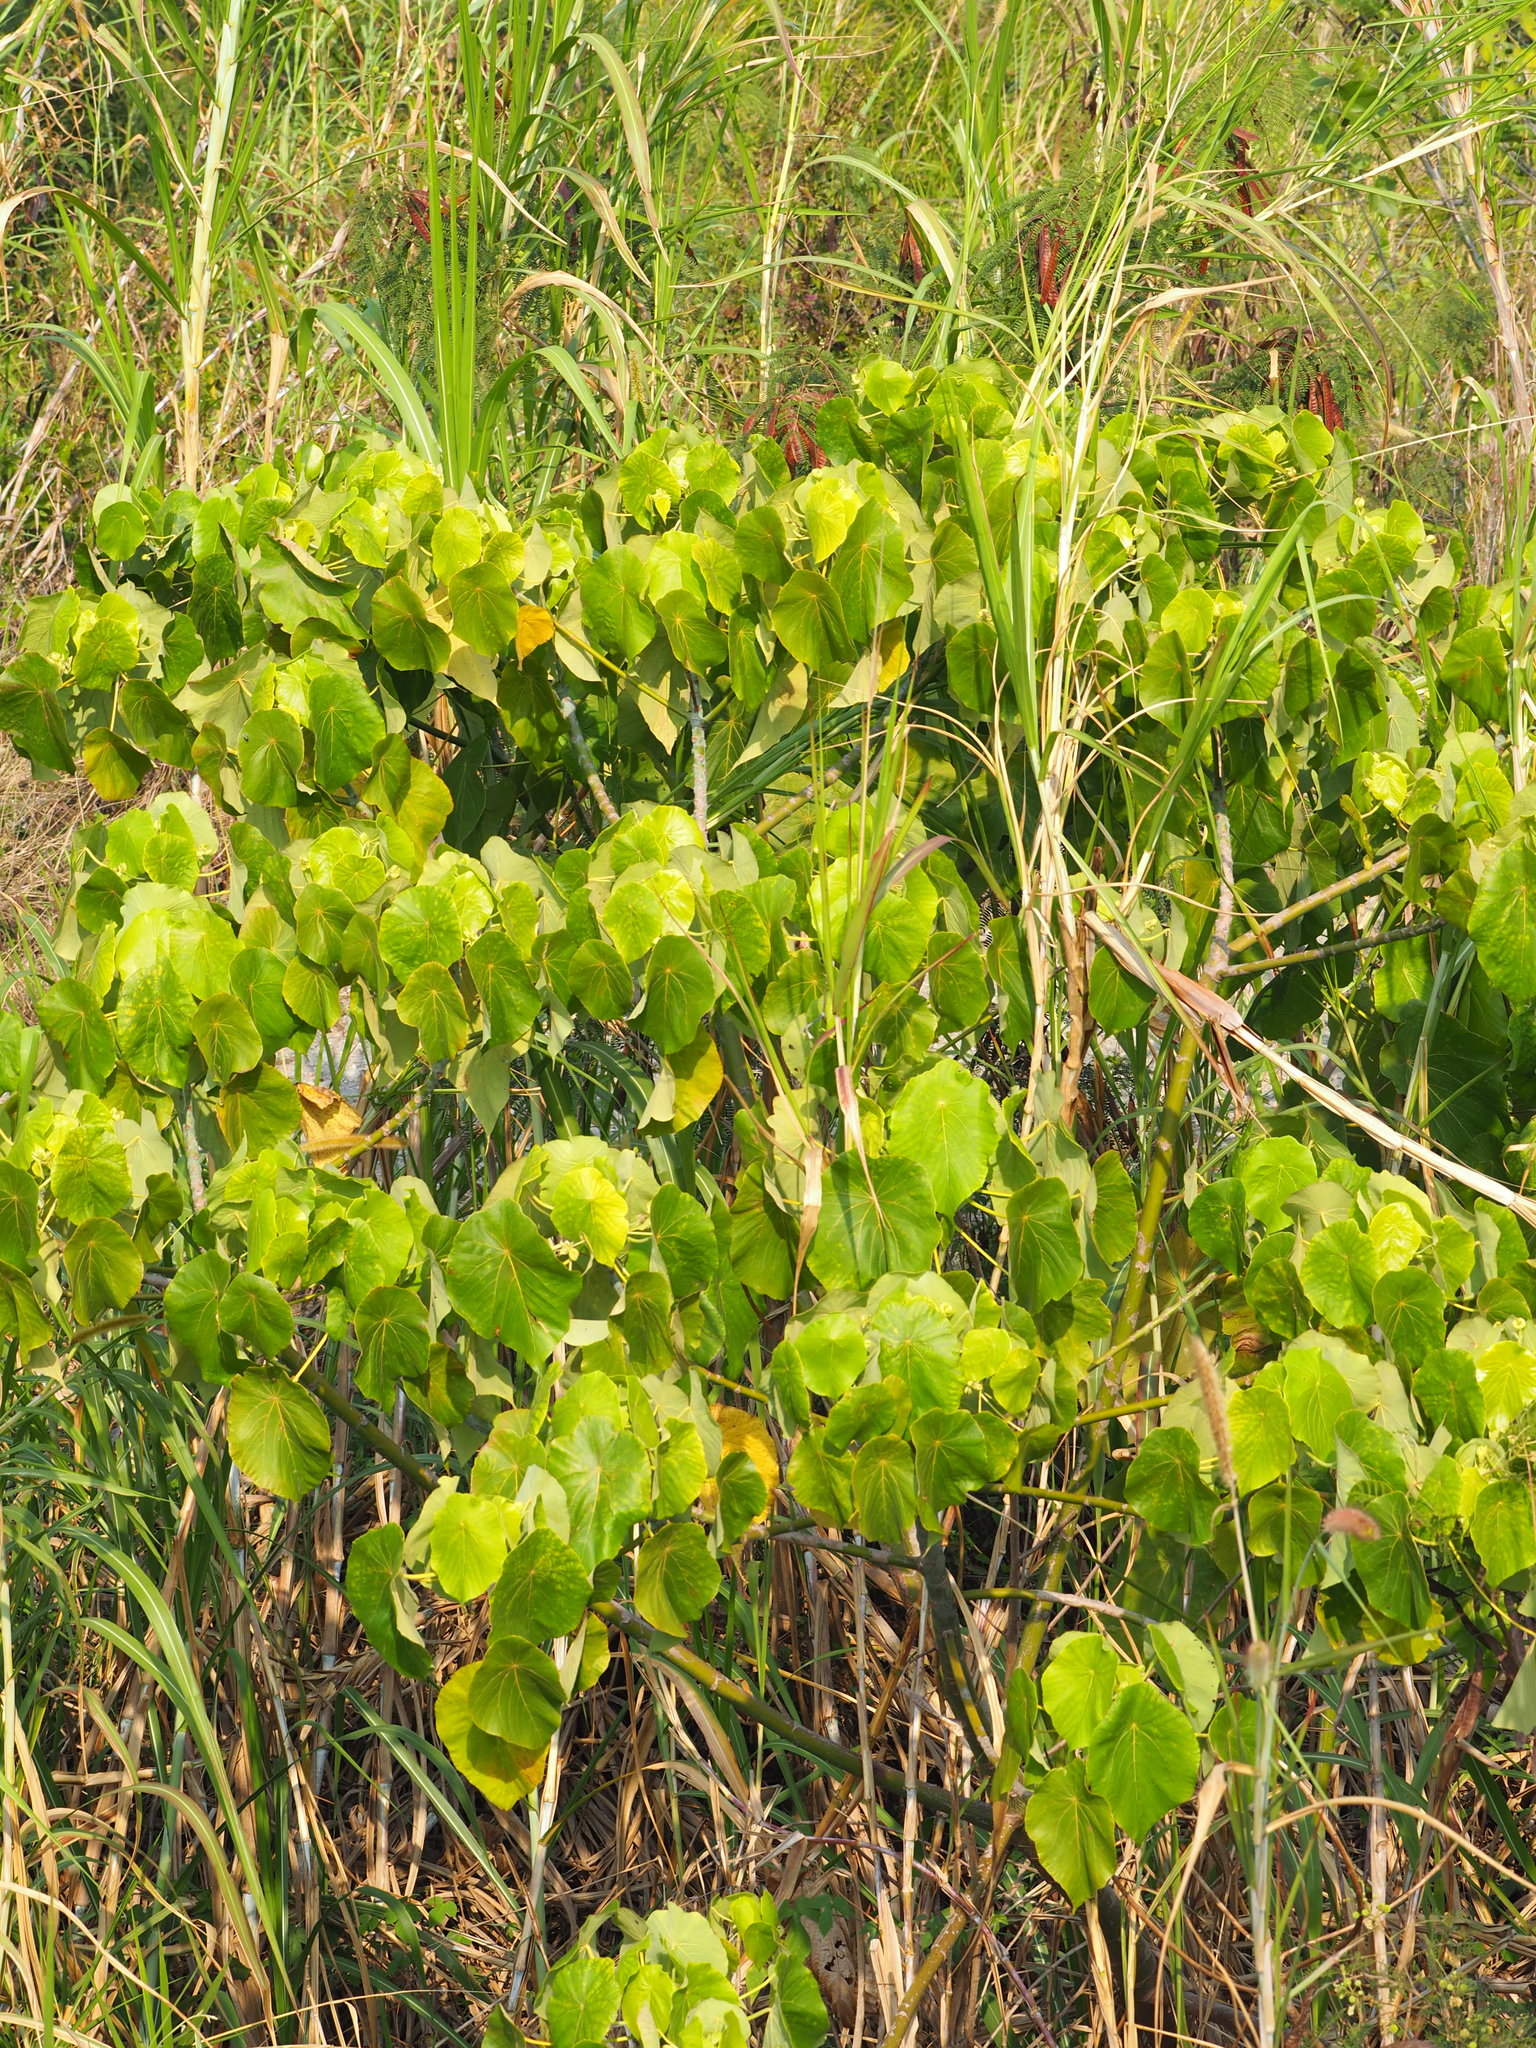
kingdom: Plantae
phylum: Tracheophyta
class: Magnoliopsida
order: Malpighiales
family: Euphorbiaceae
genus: Macaranga
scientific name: Macaranga tanarius
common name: Parasol leaf tree
